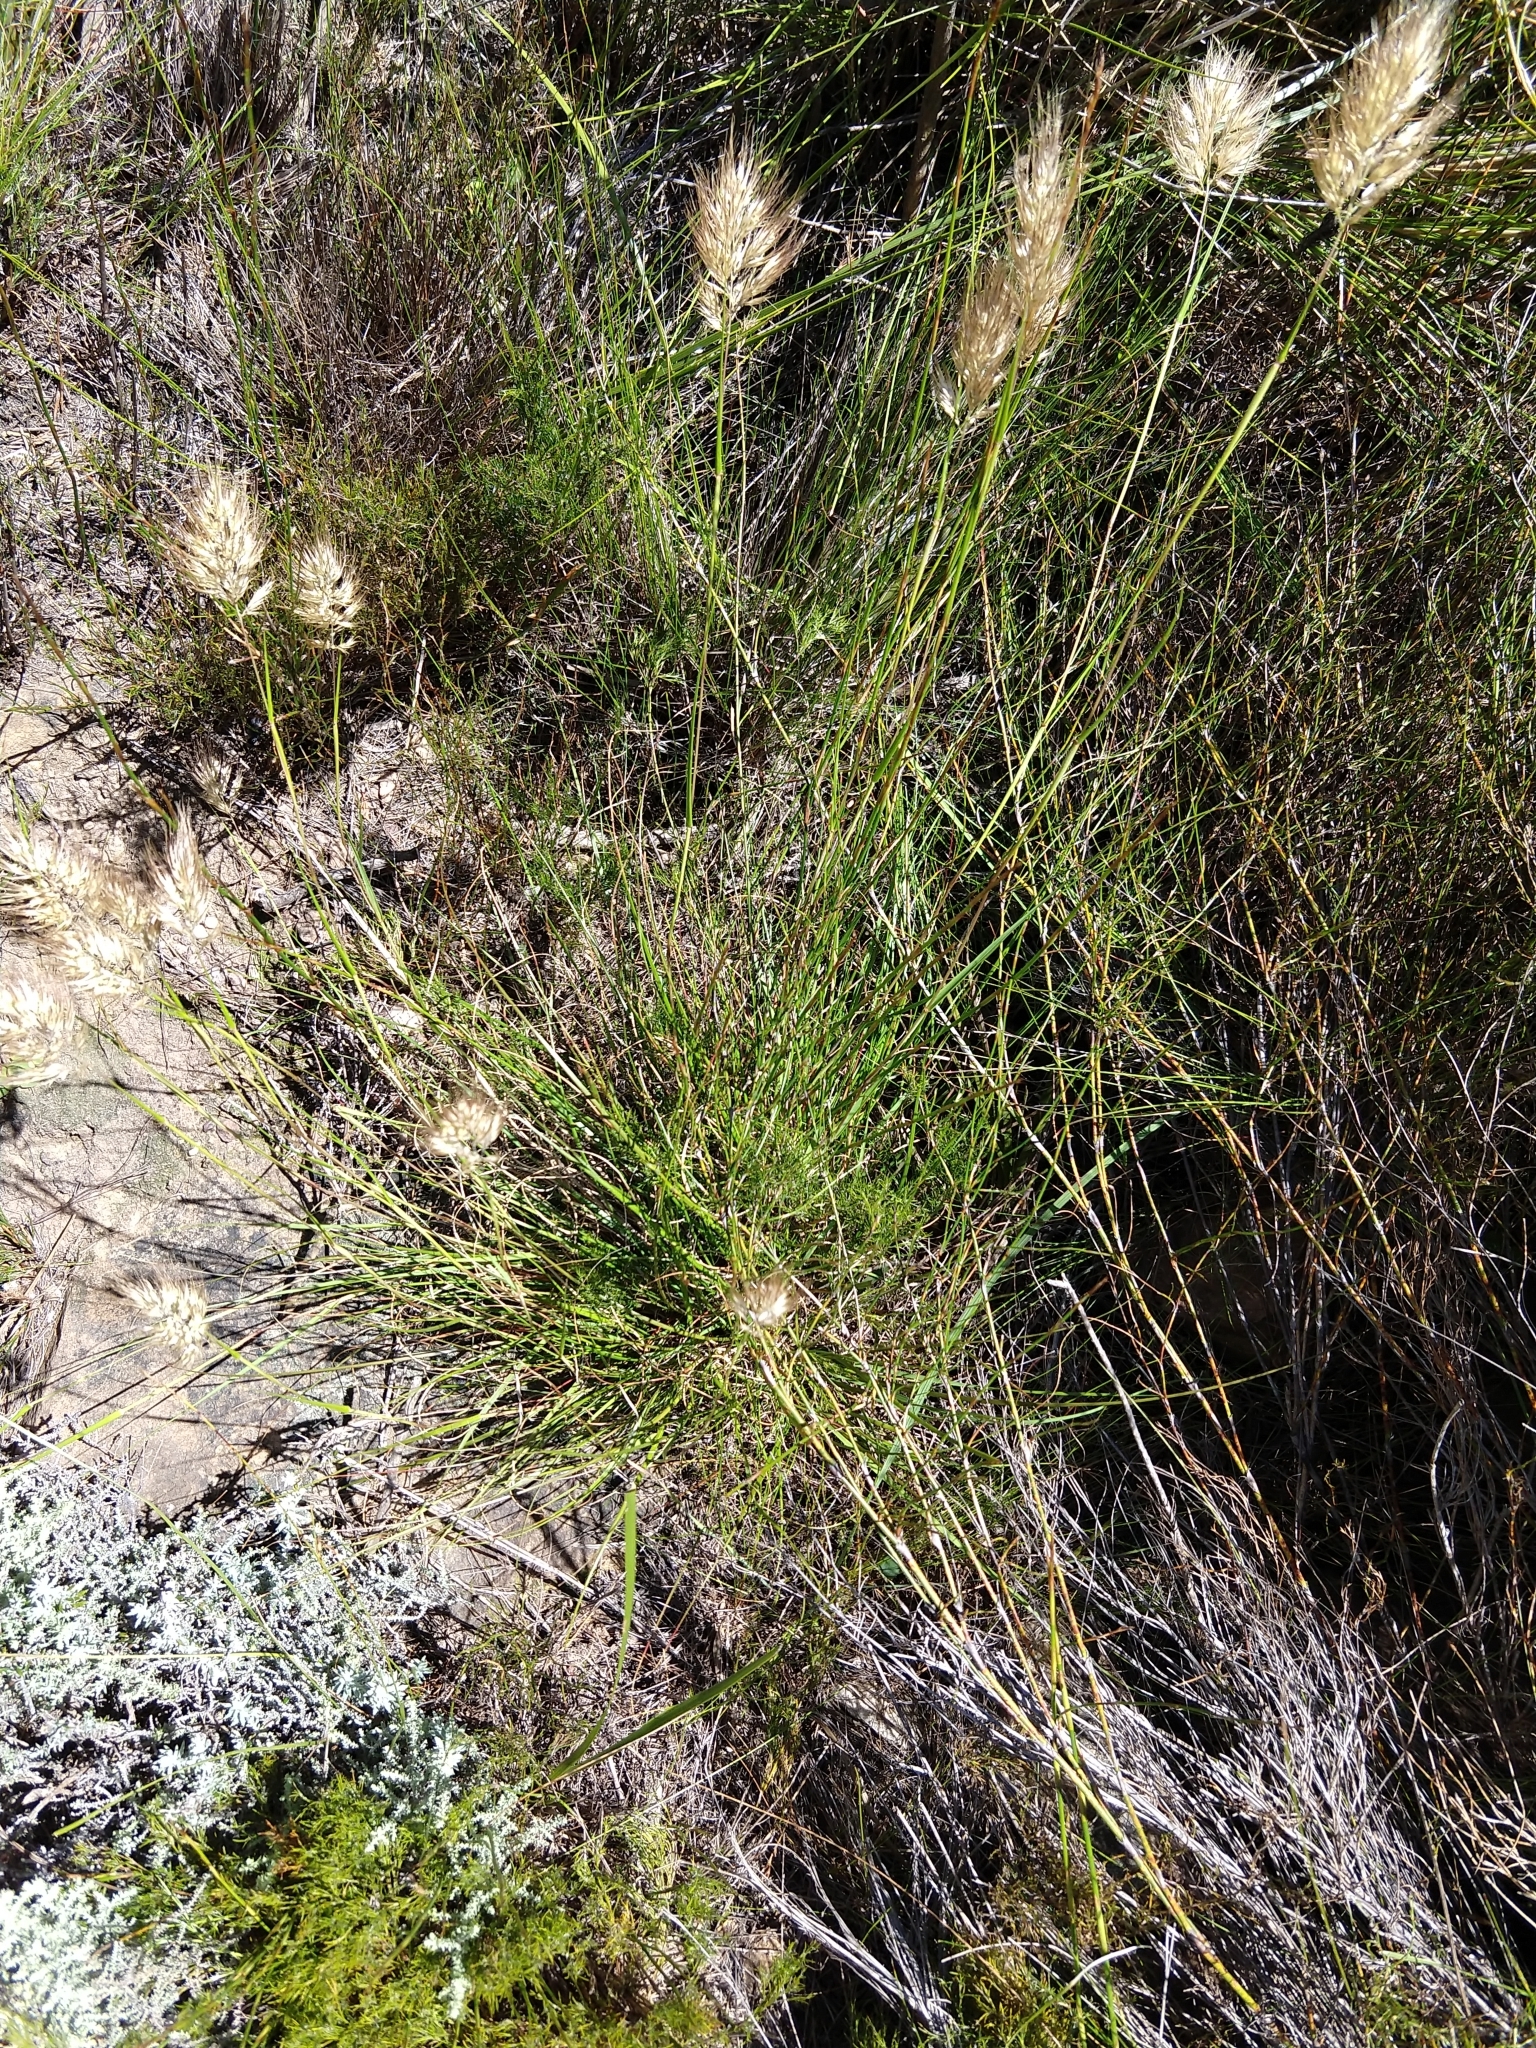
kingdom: Plantae
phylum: Tracheophyta
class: Liliopsida
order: Poales
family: Poaceae
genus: Pentameris
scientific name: Pentameris curvifolia
